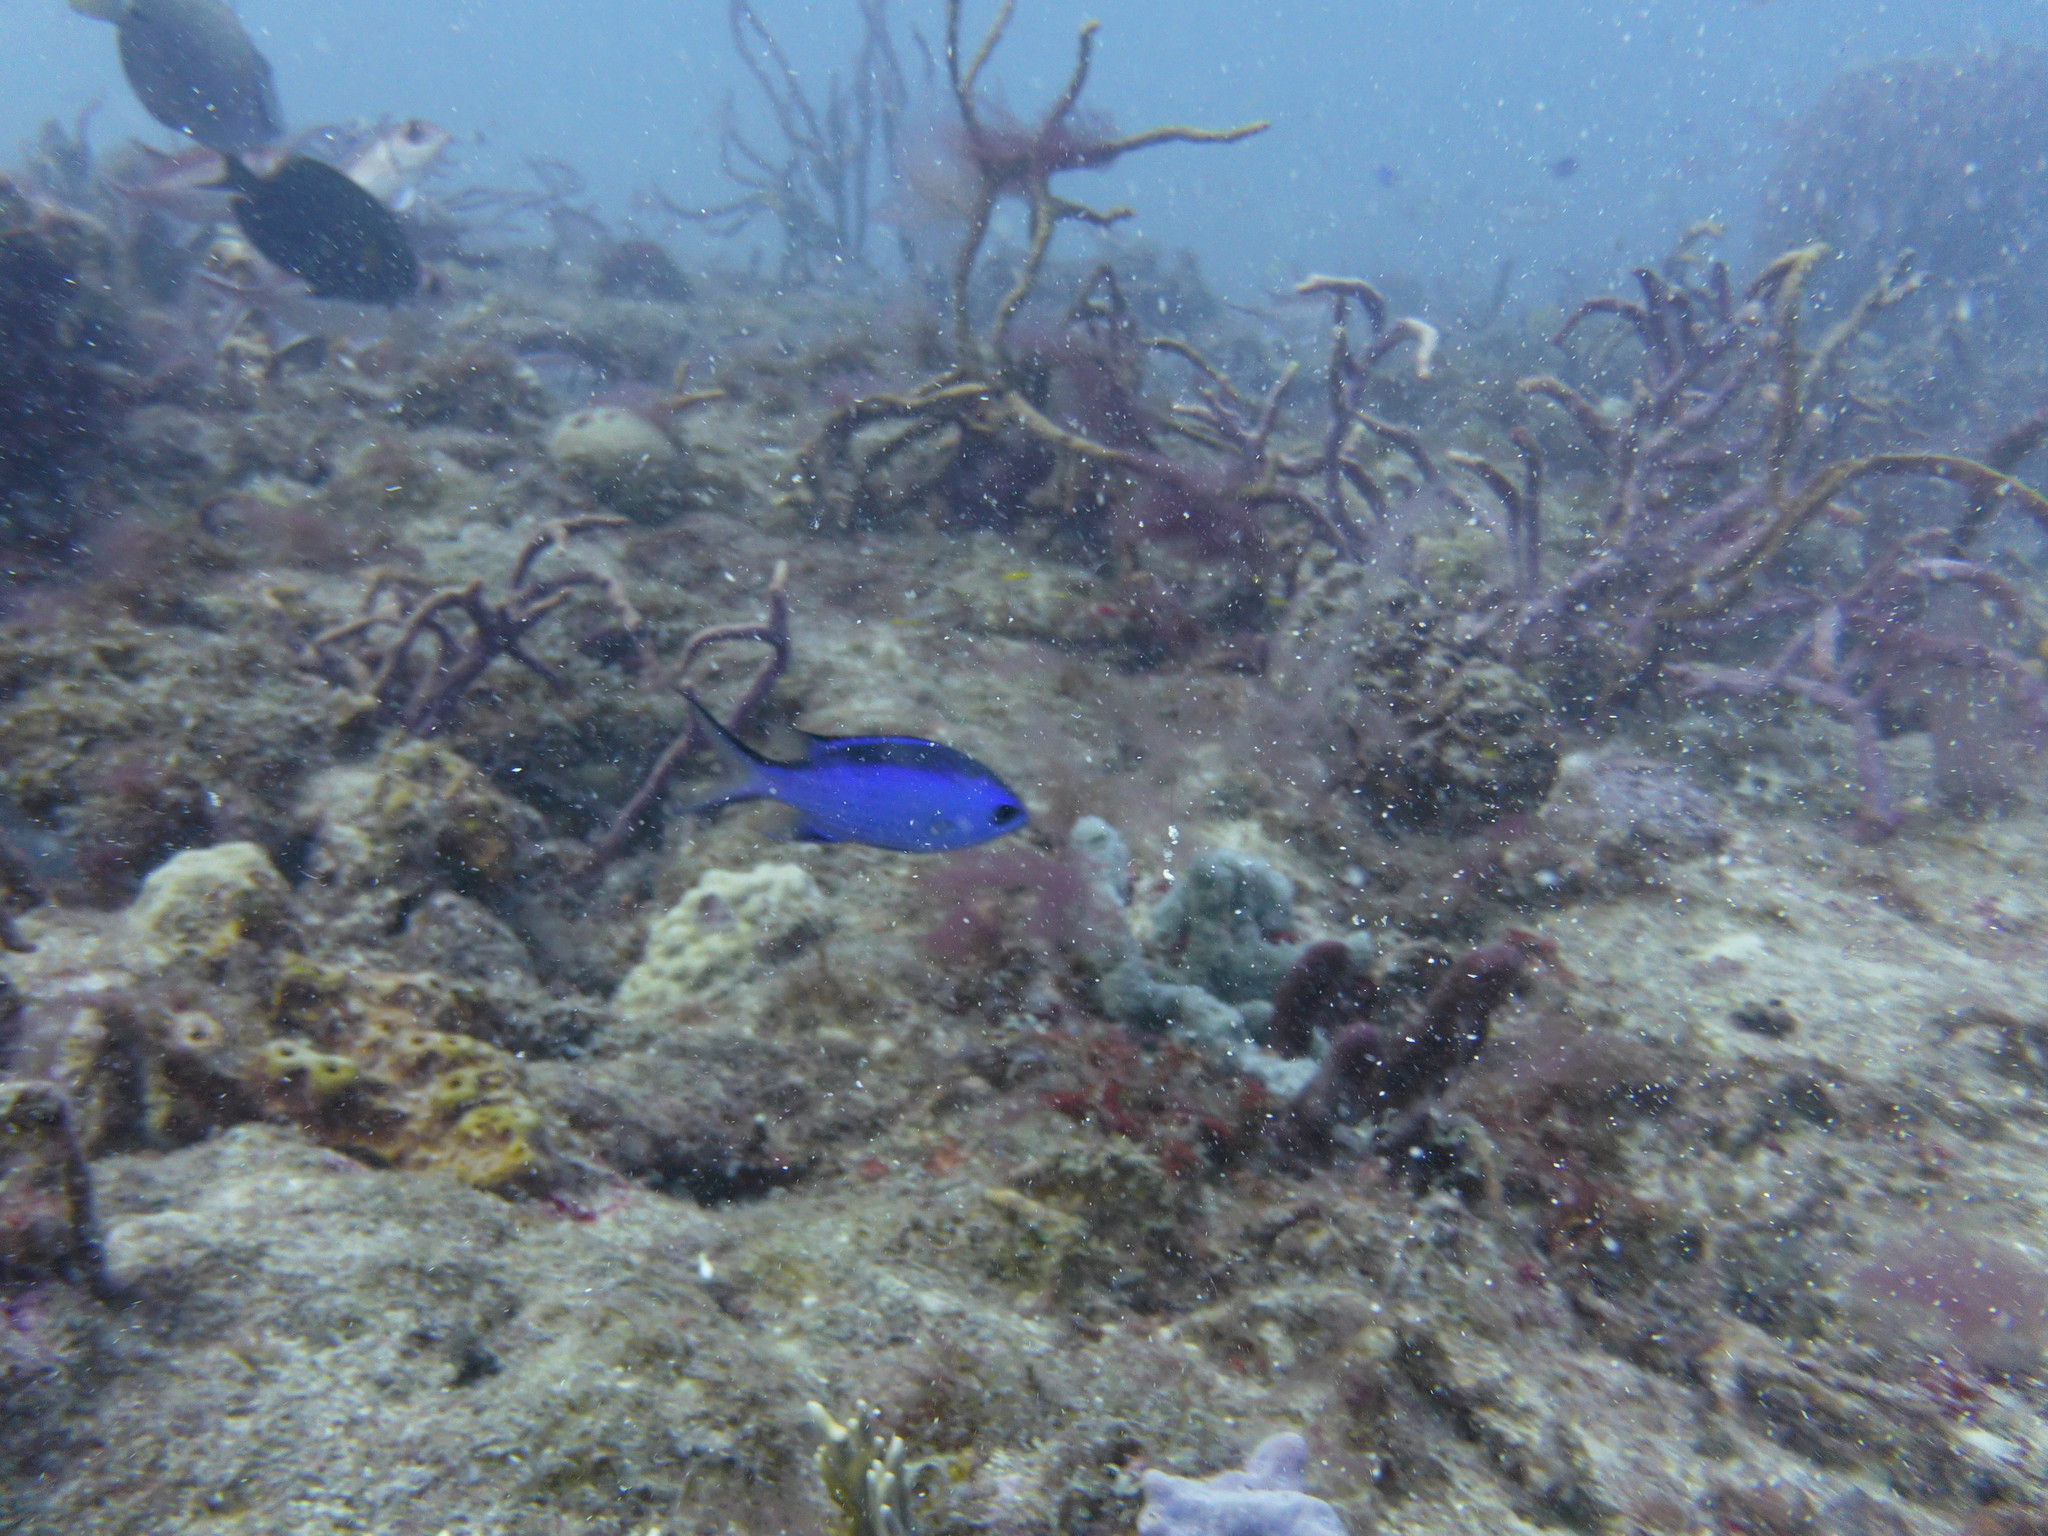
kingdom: Animalia
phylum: Chordata
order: Perciformes
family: Pomacentridae
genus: Chromis
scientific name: Chromis cyanea
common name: Blue chromis
